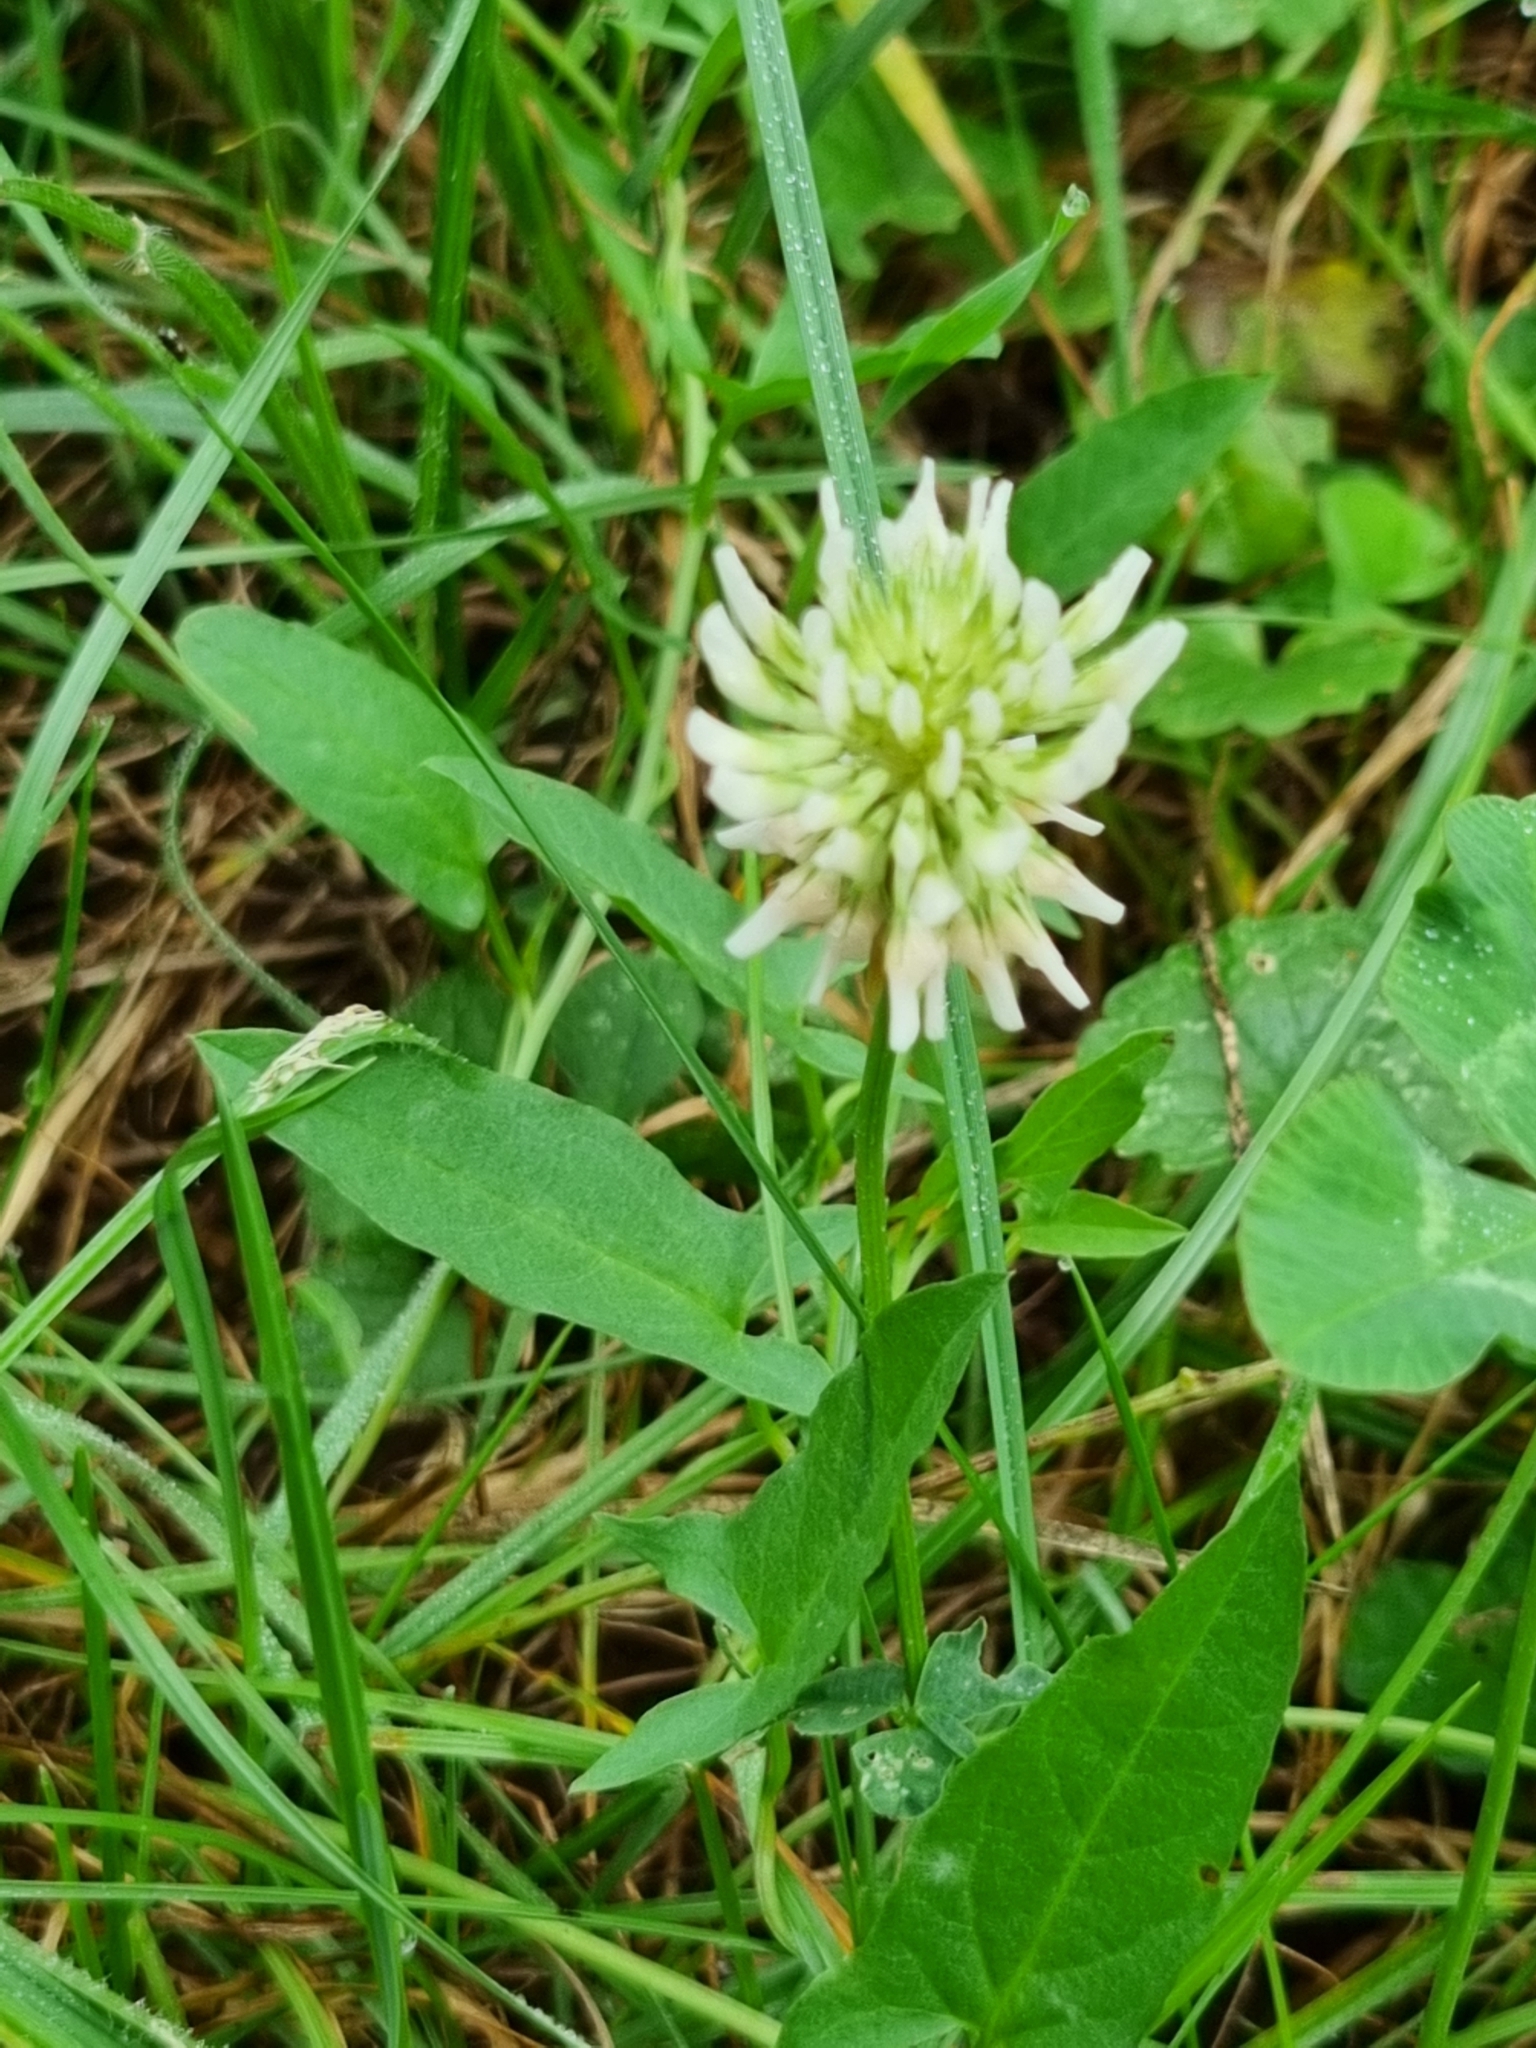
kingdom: Plantae
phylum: Tracheophyta
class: Magnoliopsida
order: Fabales
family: Fabaceae
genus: Trifolium
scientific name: Trifolium repens
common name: White clover
